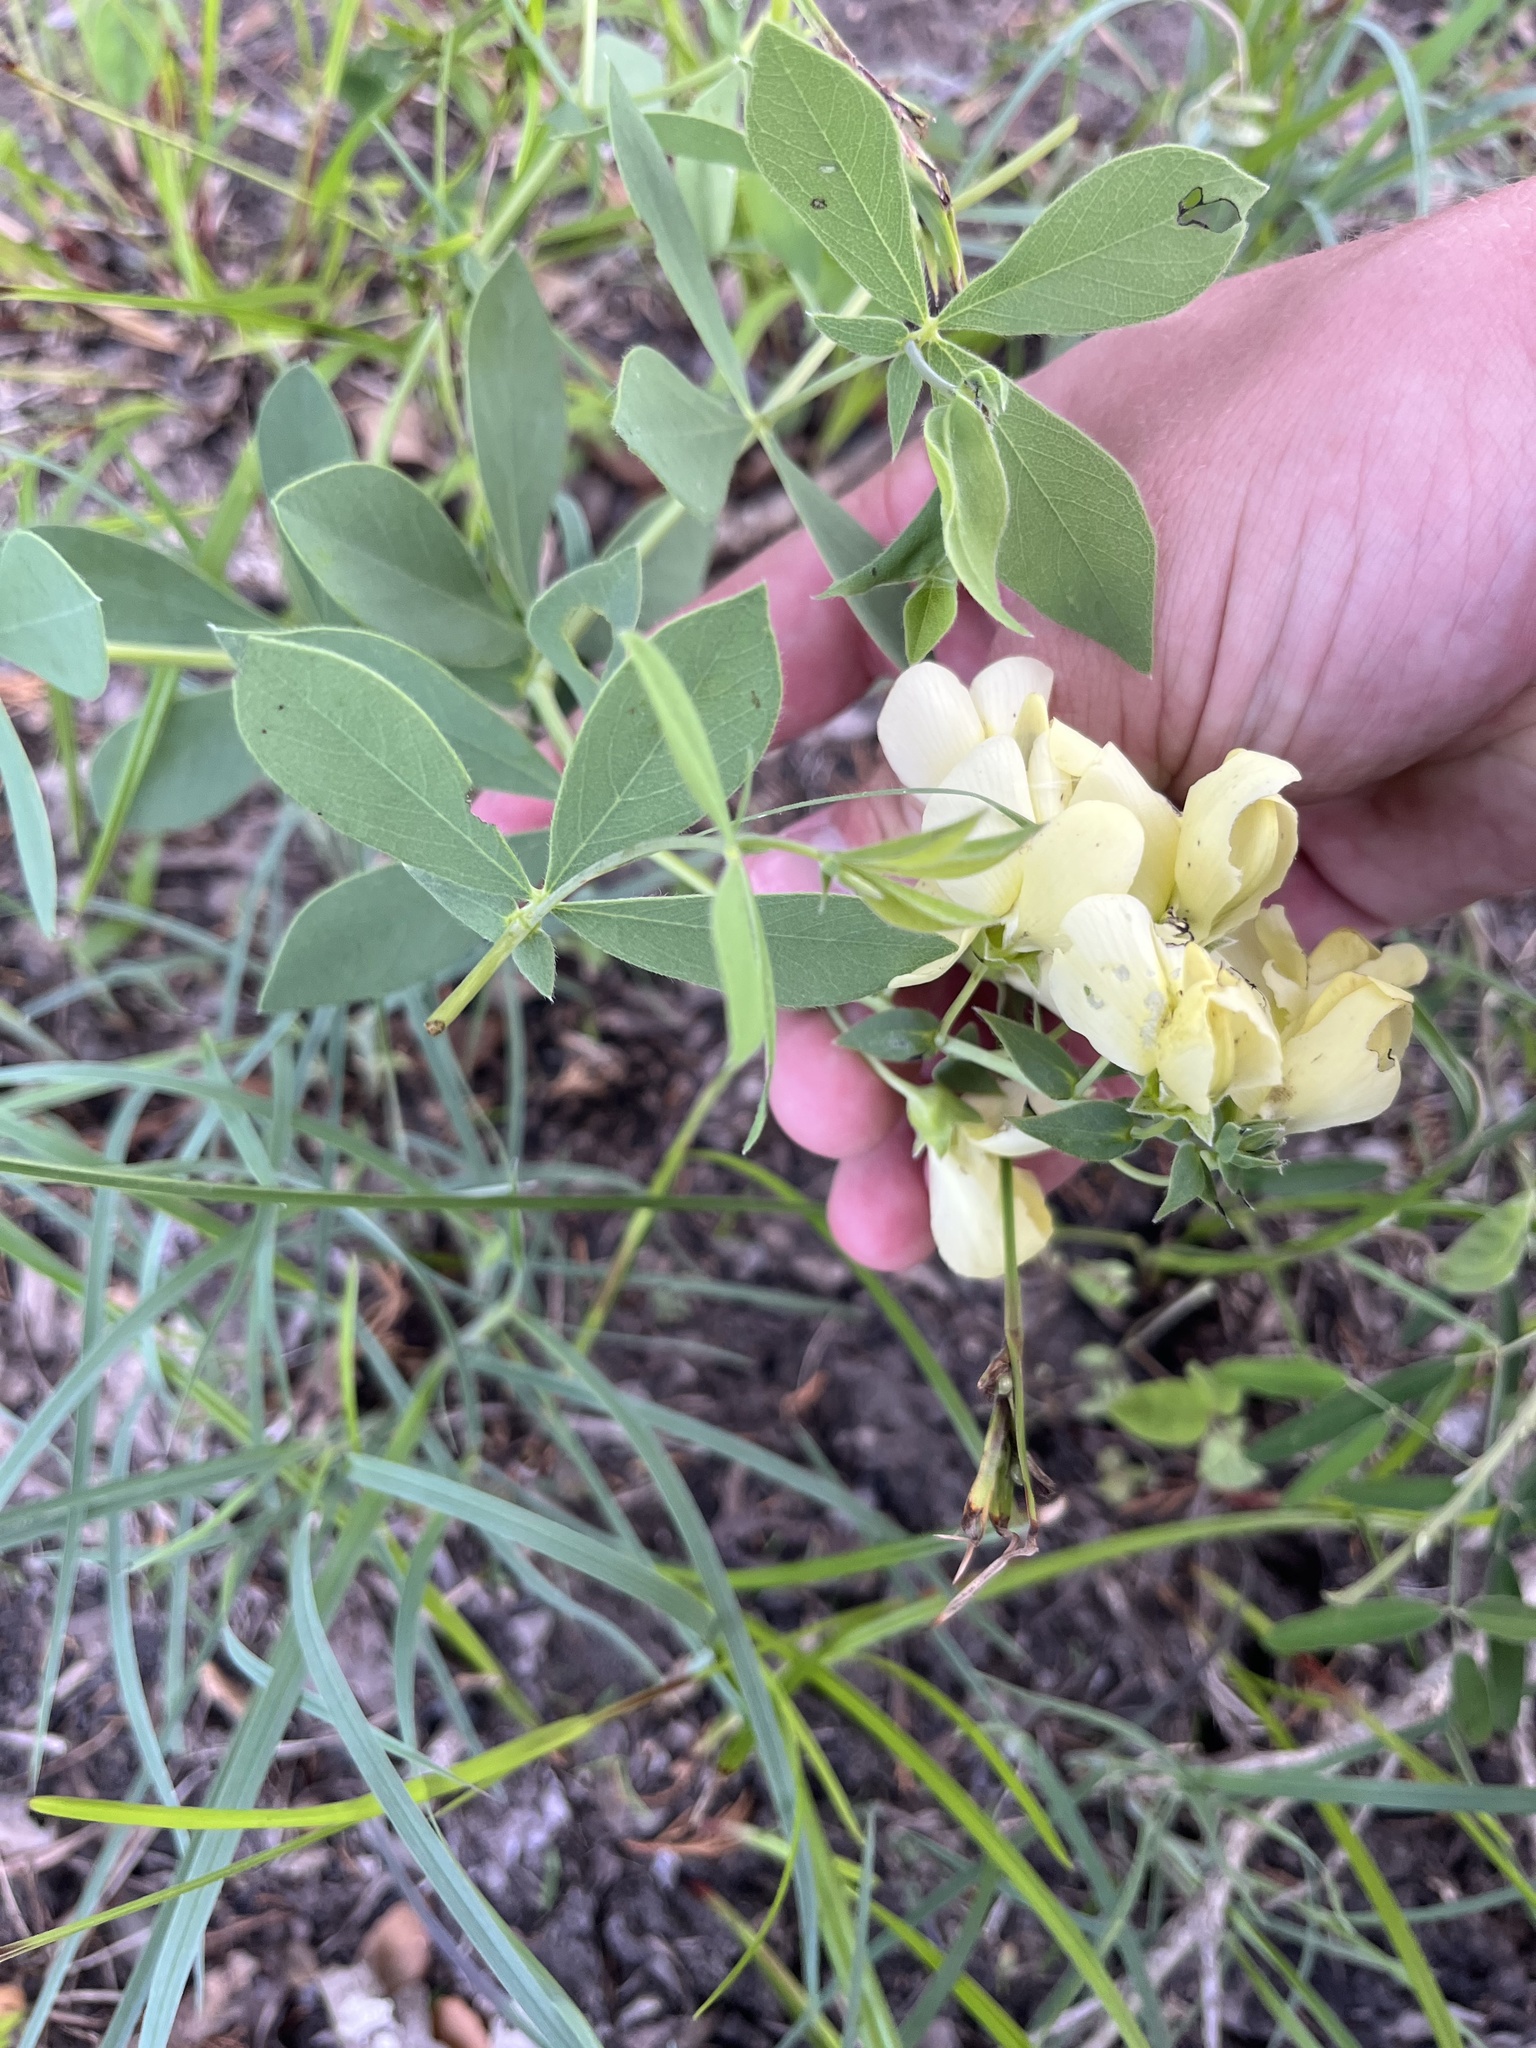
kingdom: Plantae
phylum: Tracheophyta
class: Magnoliopsida
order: Fabales
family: Fabaceae
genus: Baptisia
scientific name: Baptisia bracteata
